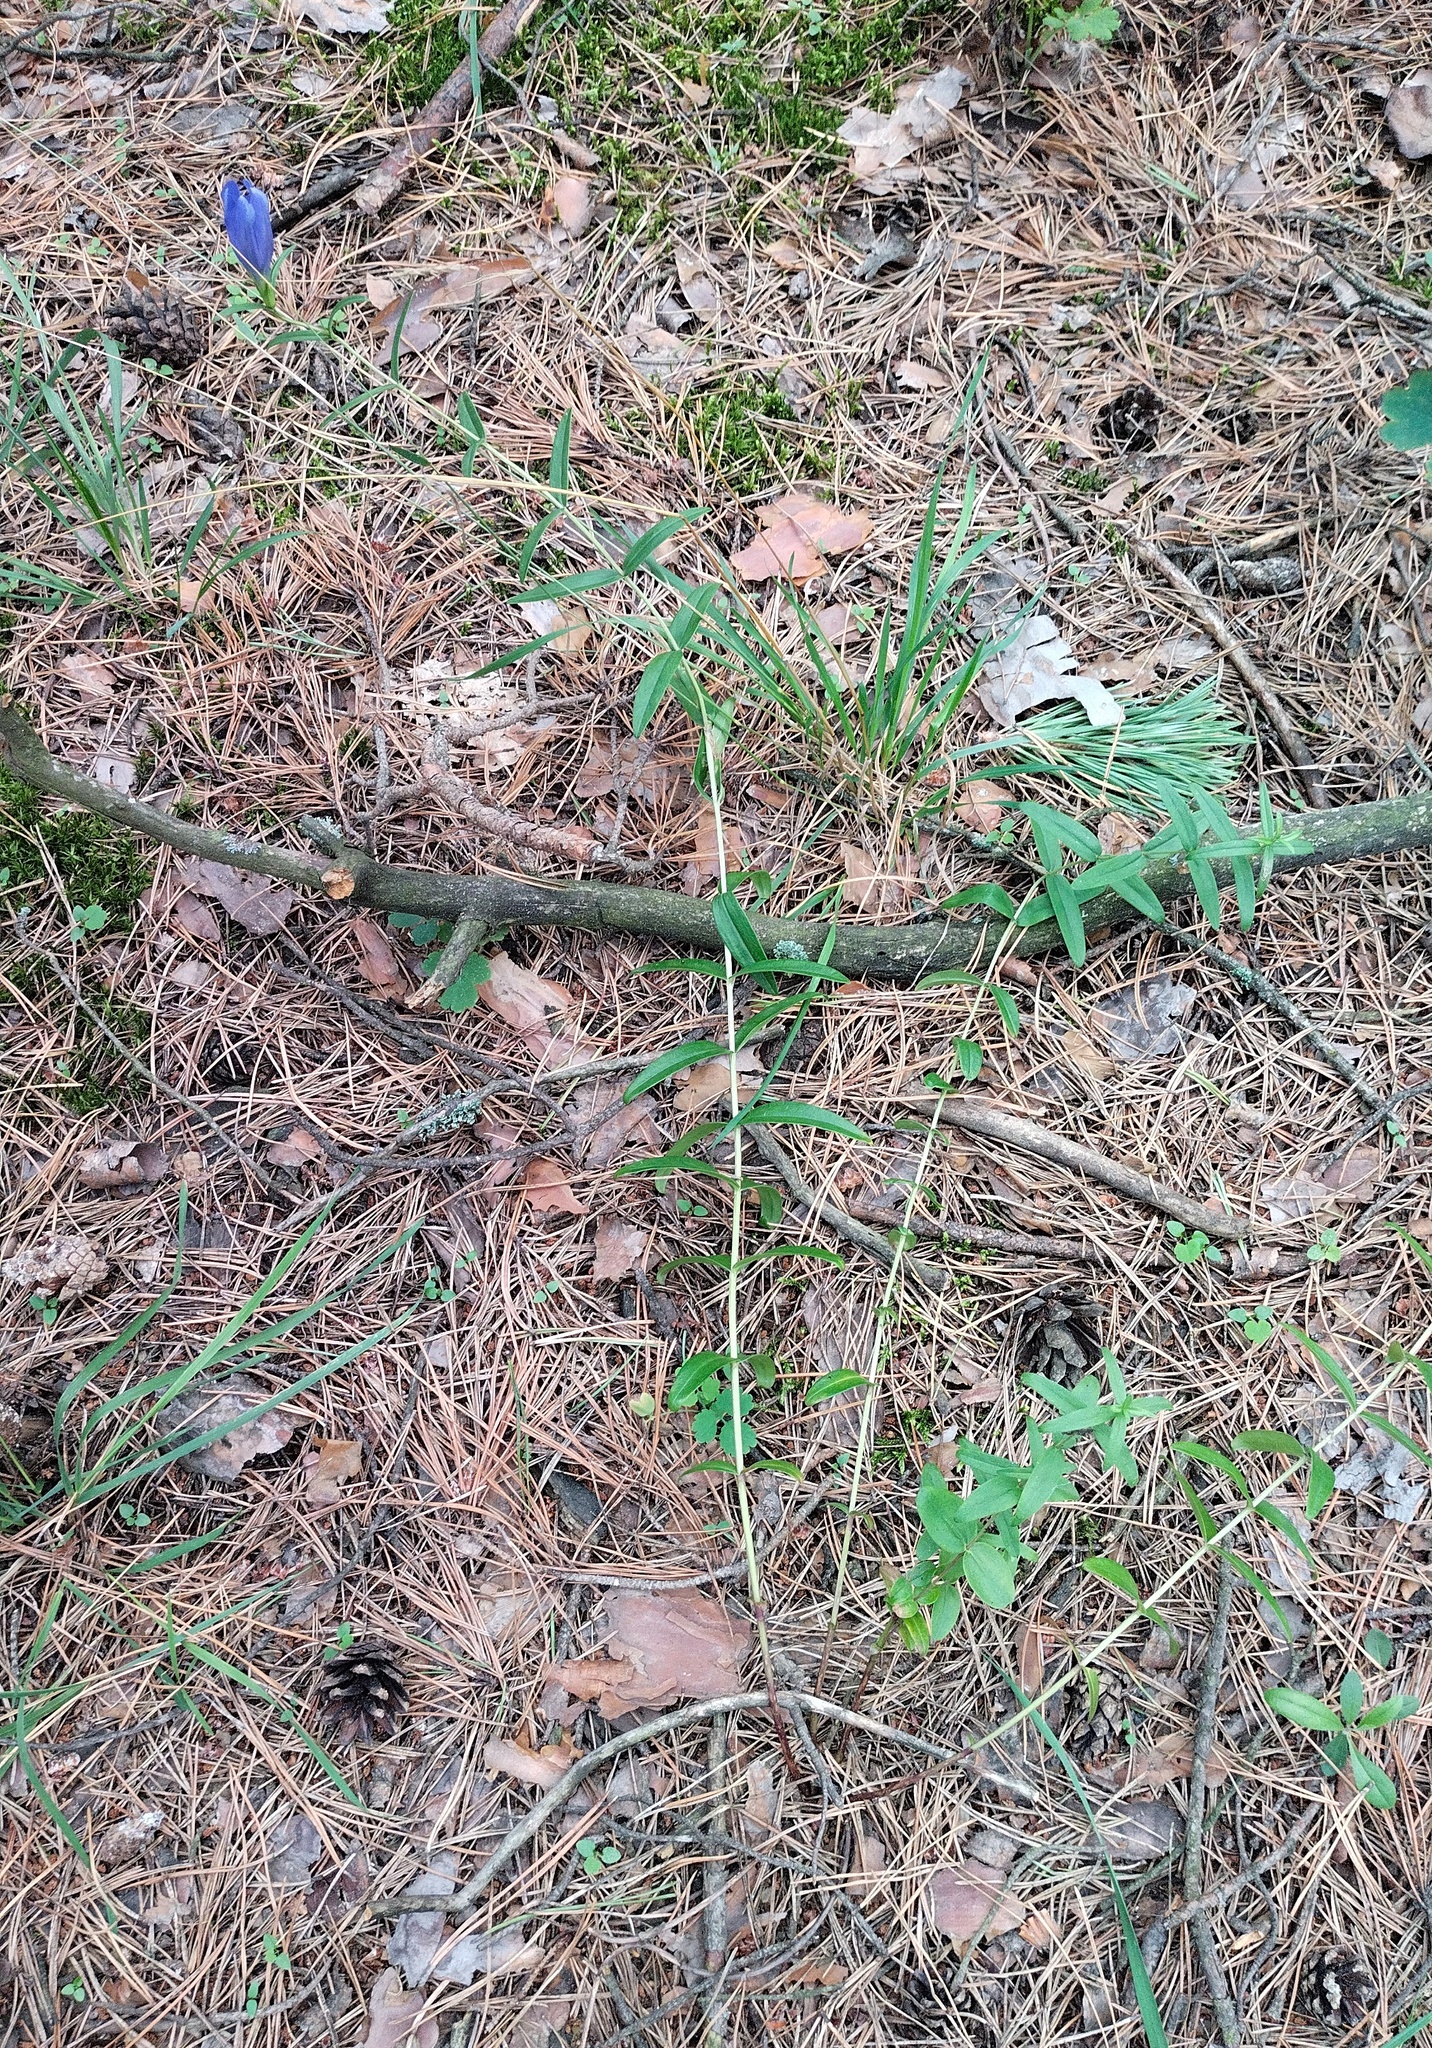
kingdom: Plantae
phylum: Tracheophyta
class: Magnoliopsida
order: Gentianales
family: Gentianaceae
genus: Gentiana
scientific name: Gentiana pneumonanthe
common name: Marsh gentian
